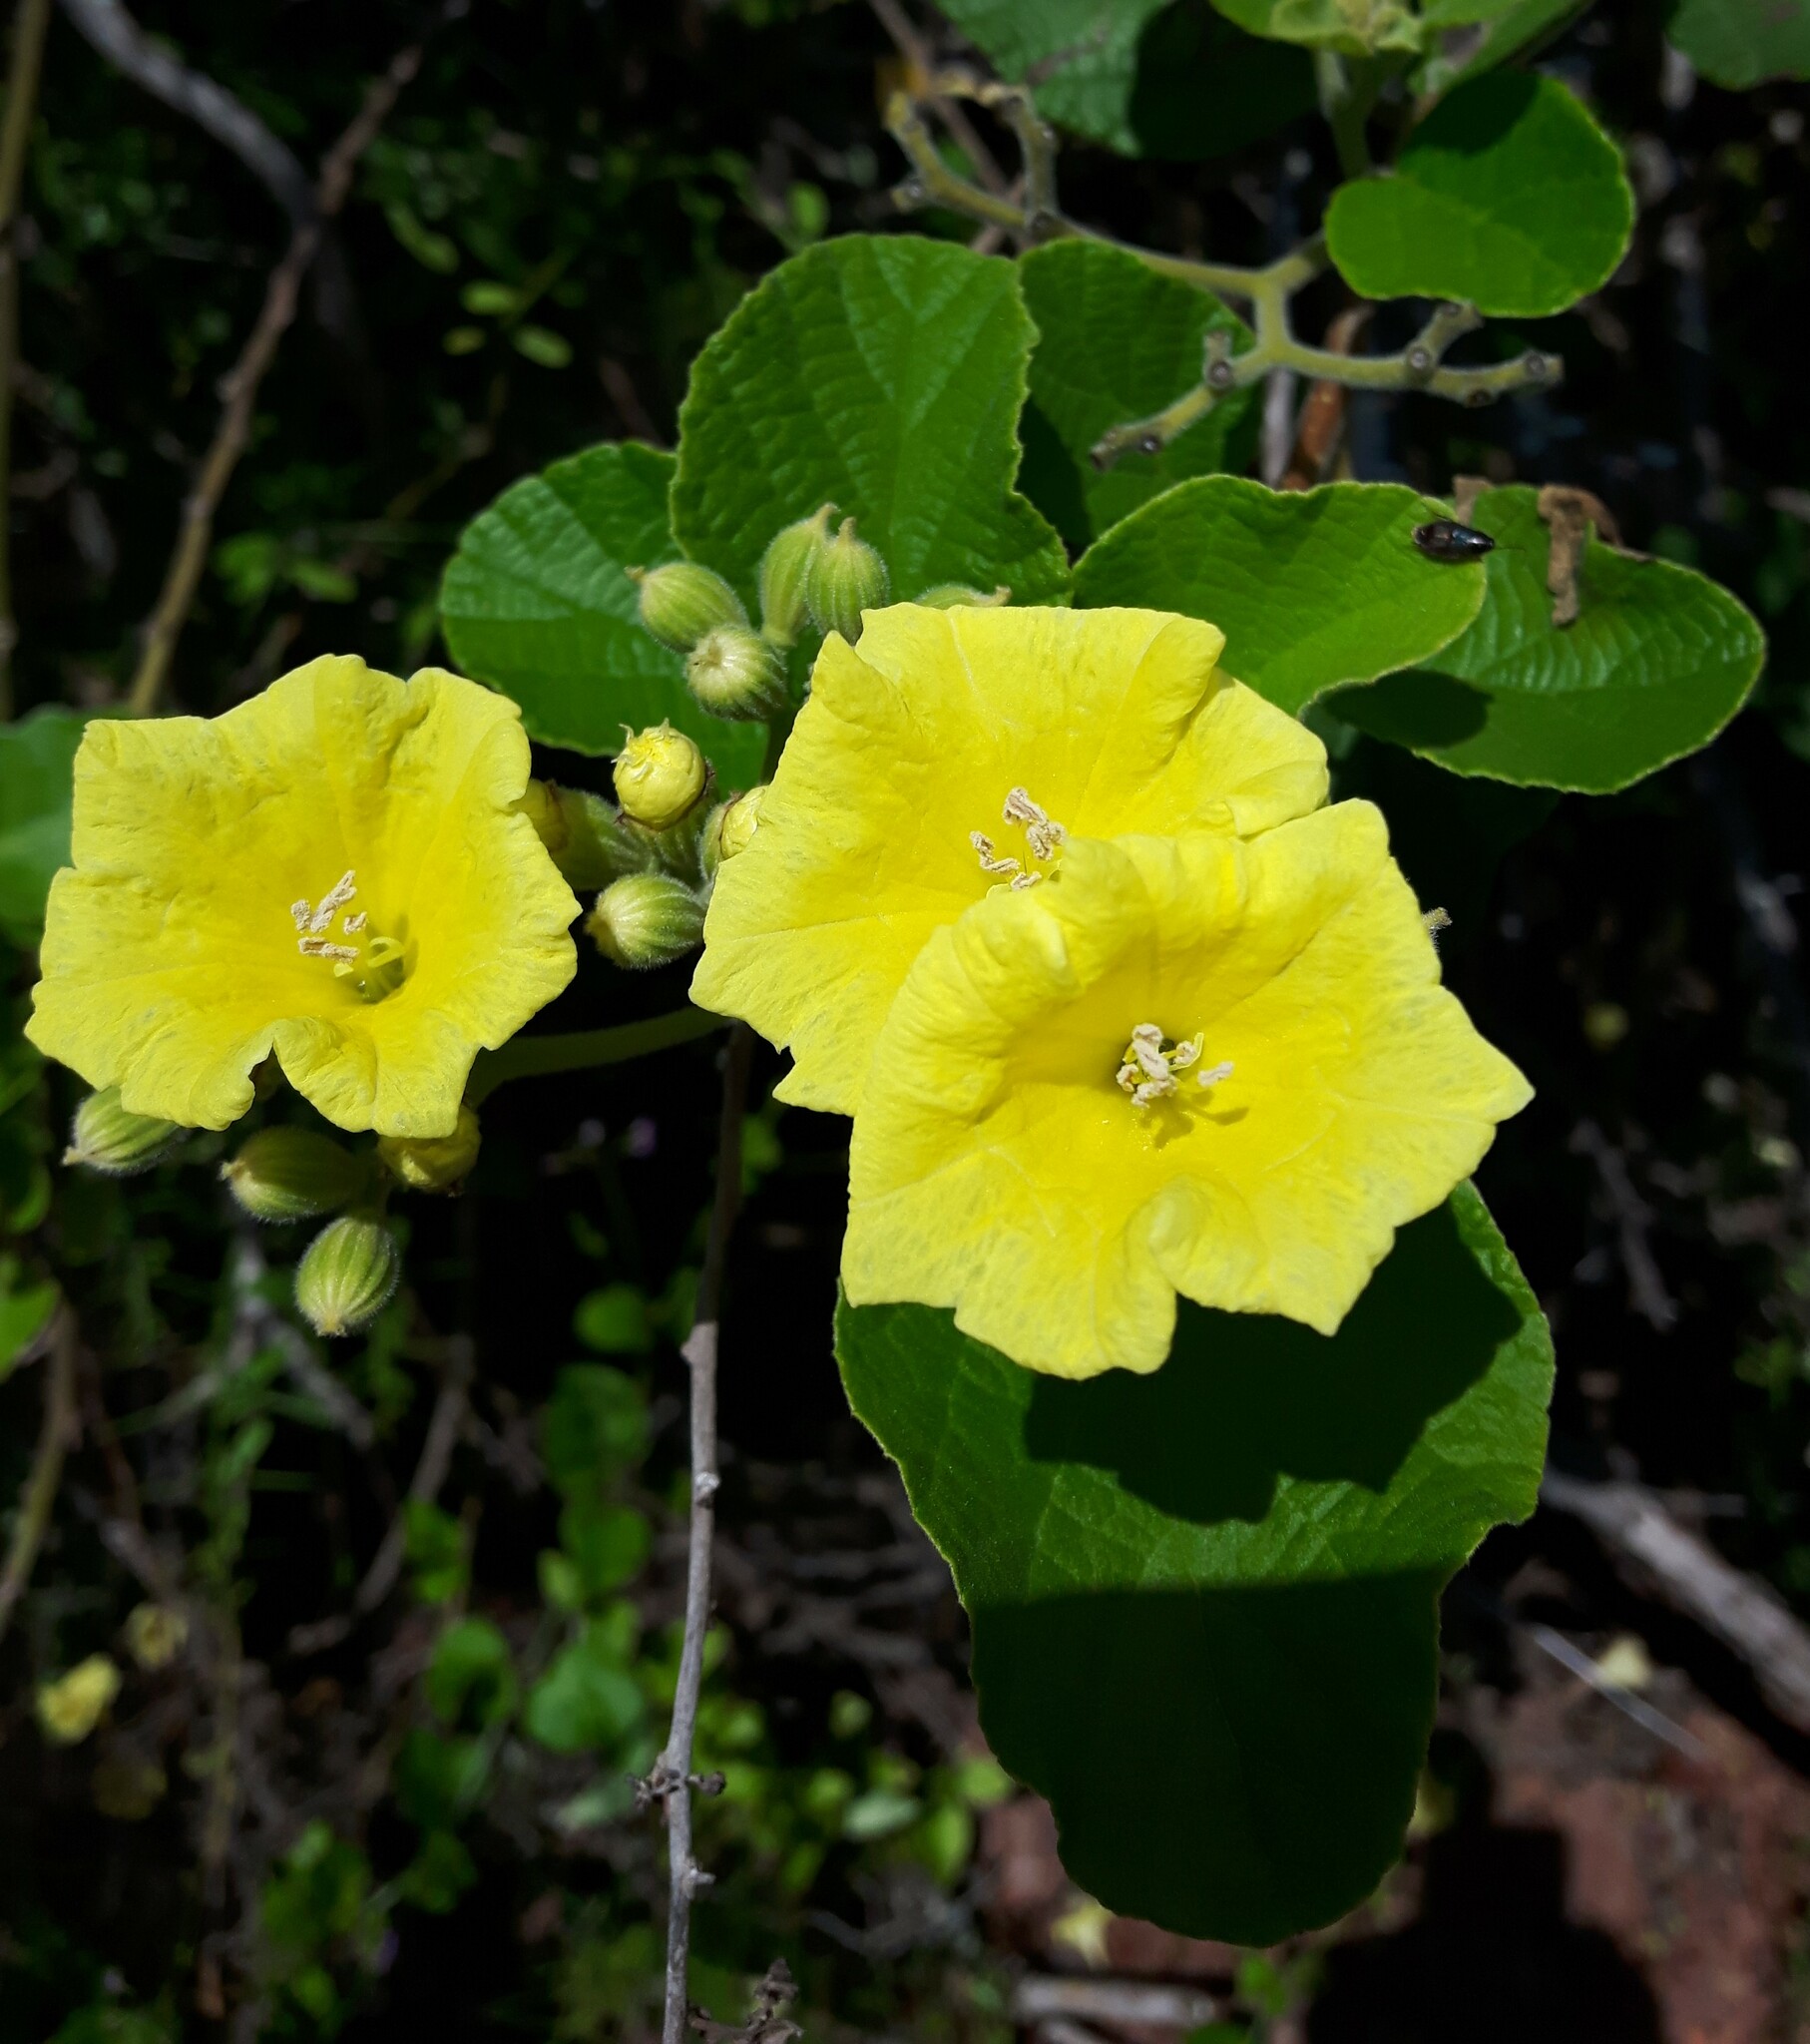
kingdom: Plantae
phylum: Tracheophyta
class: Magnoliopsida
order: Boraginales
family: Cordiaceae
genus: Cordia
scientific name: Cordia lutea
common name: Yellow geiger
